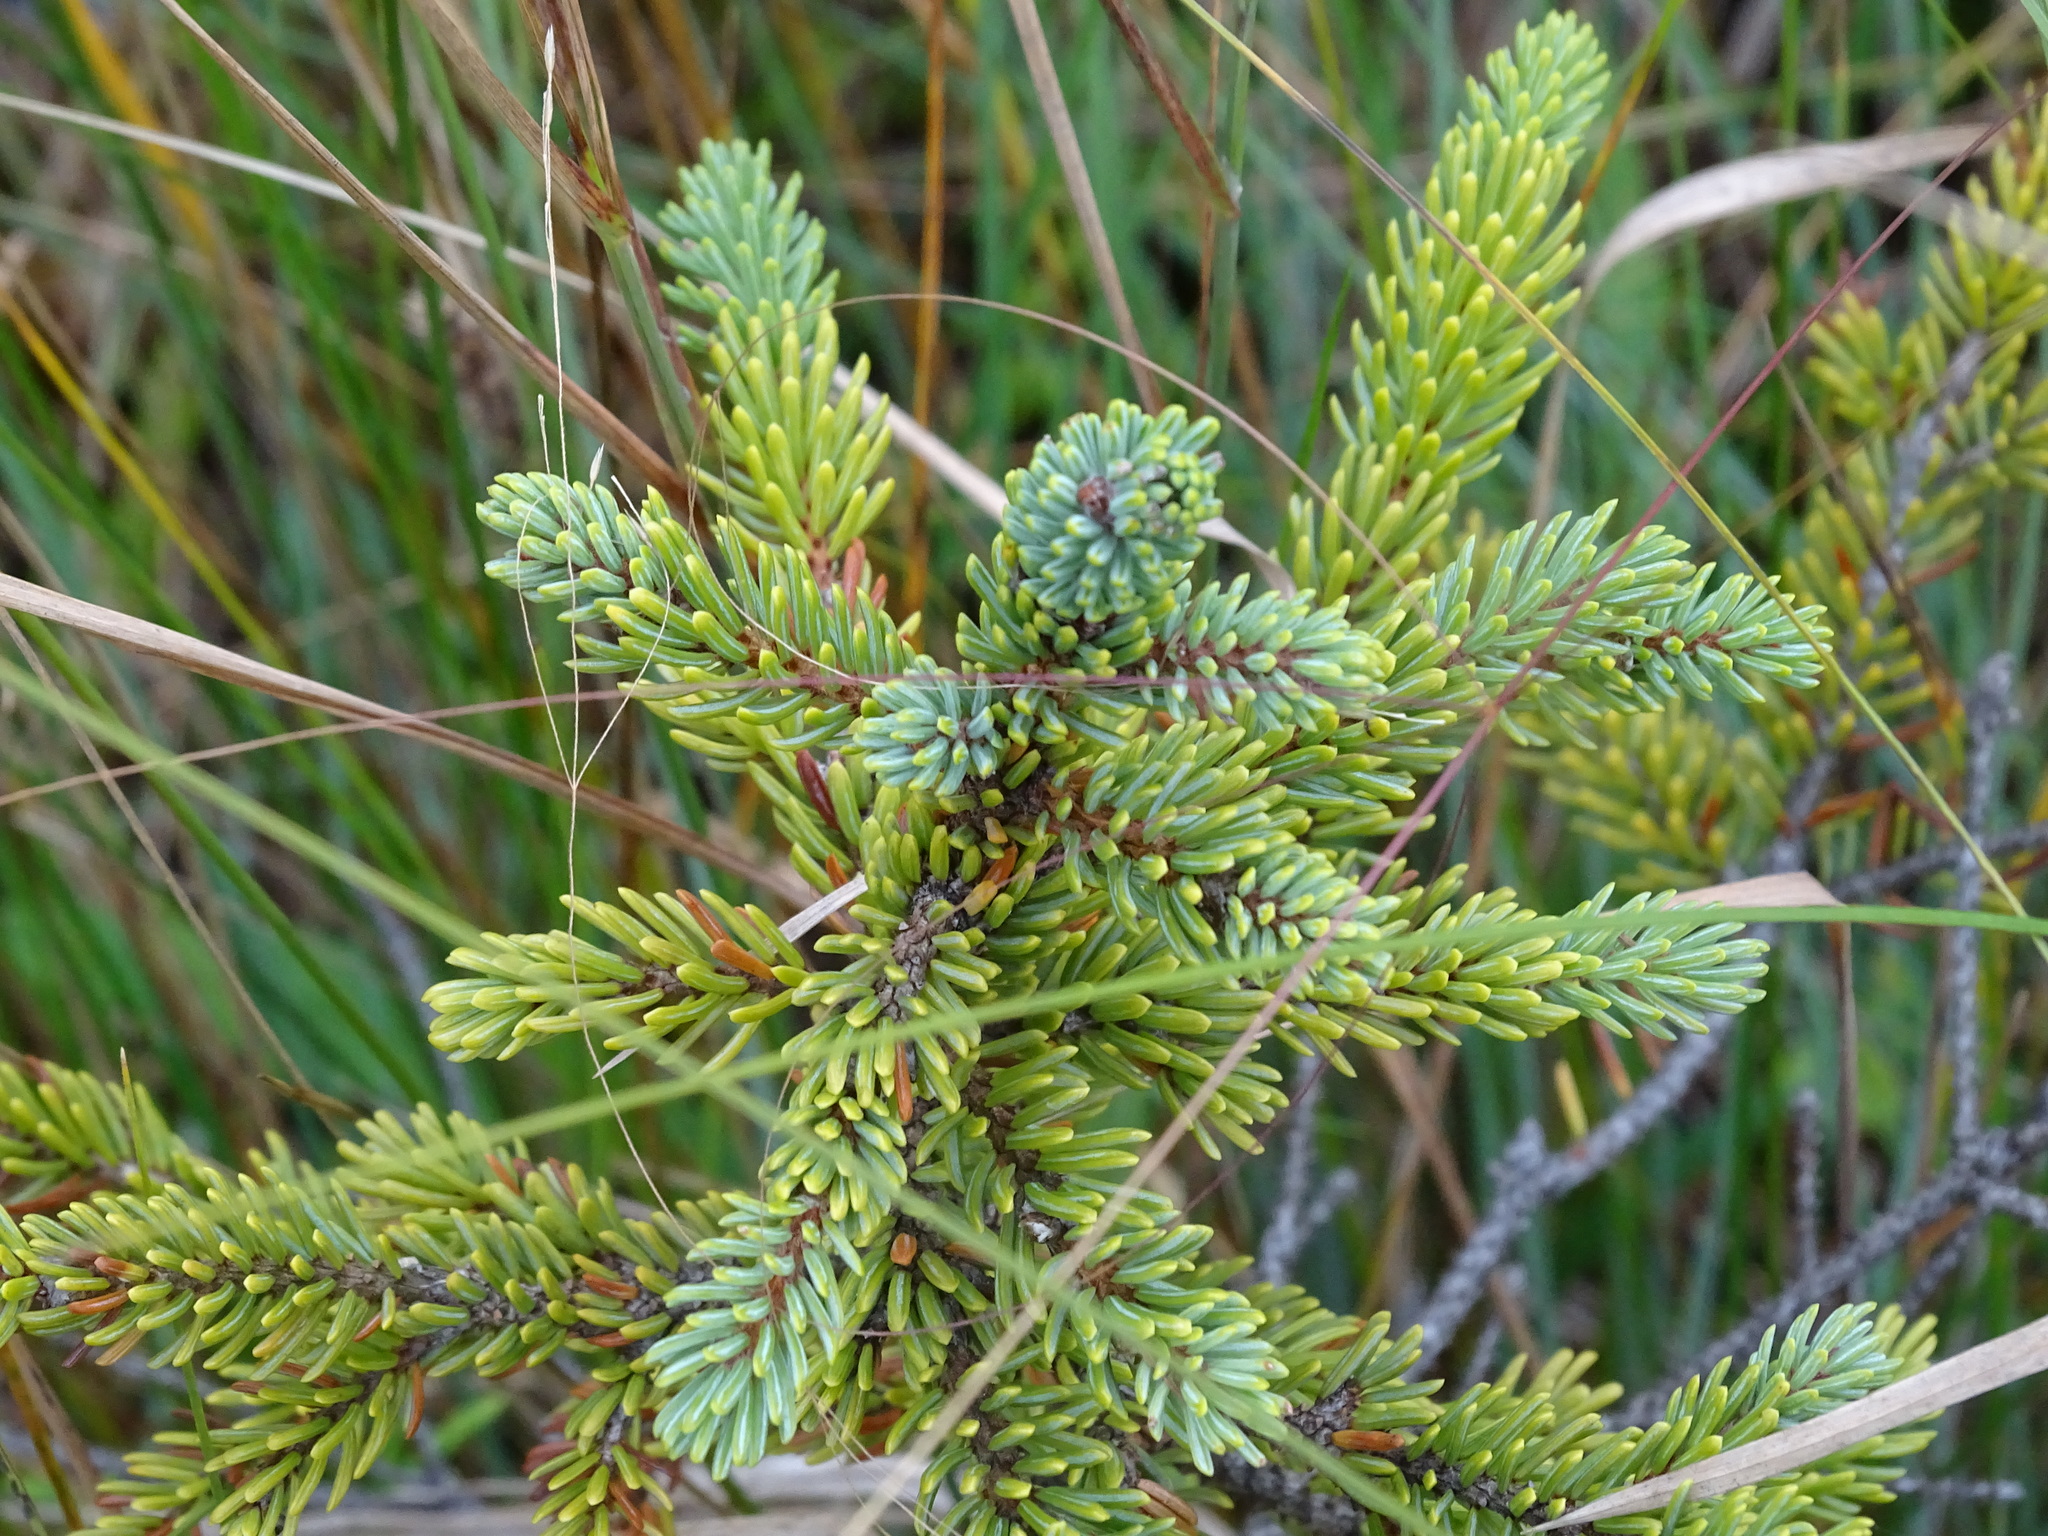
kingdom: Plantae
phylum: Tracheophyta
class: Pinopsida
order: Pinales
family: Pinaceae
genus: Picea
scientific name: Picea mariana
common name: Black spruce
